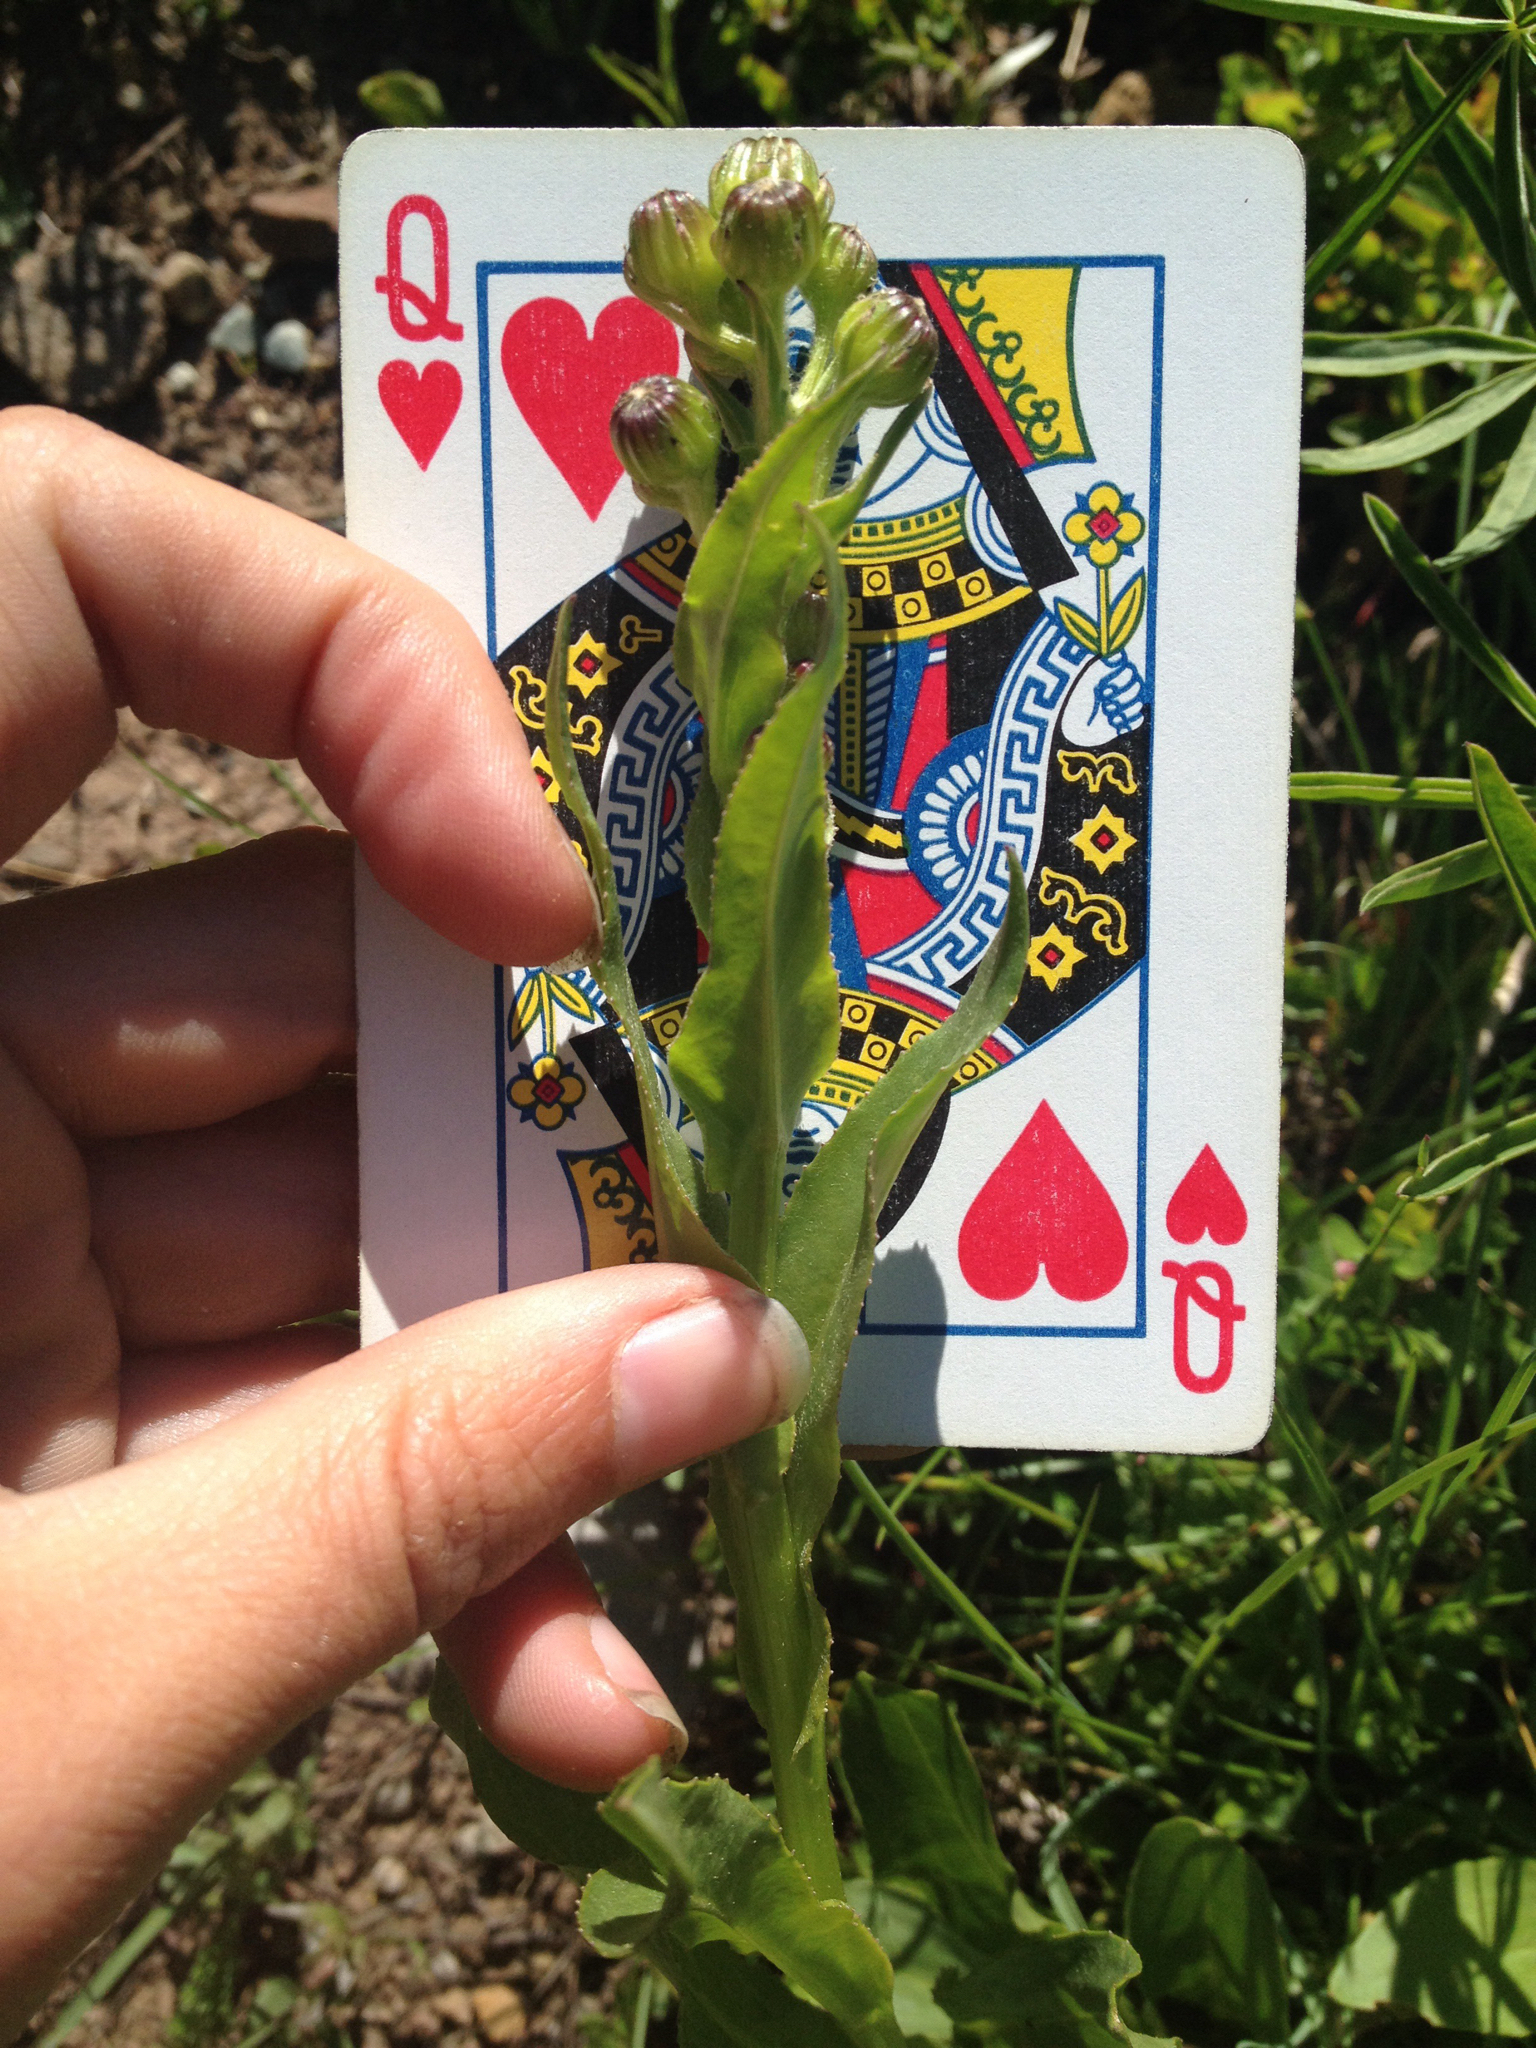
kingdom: Plantae
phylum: Tracheophyta
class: Magnoliopsida
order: Asterales
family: Asteraceae
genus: Senecio
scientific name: Senecio crassulus
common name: Mountain-meadow butterweed
